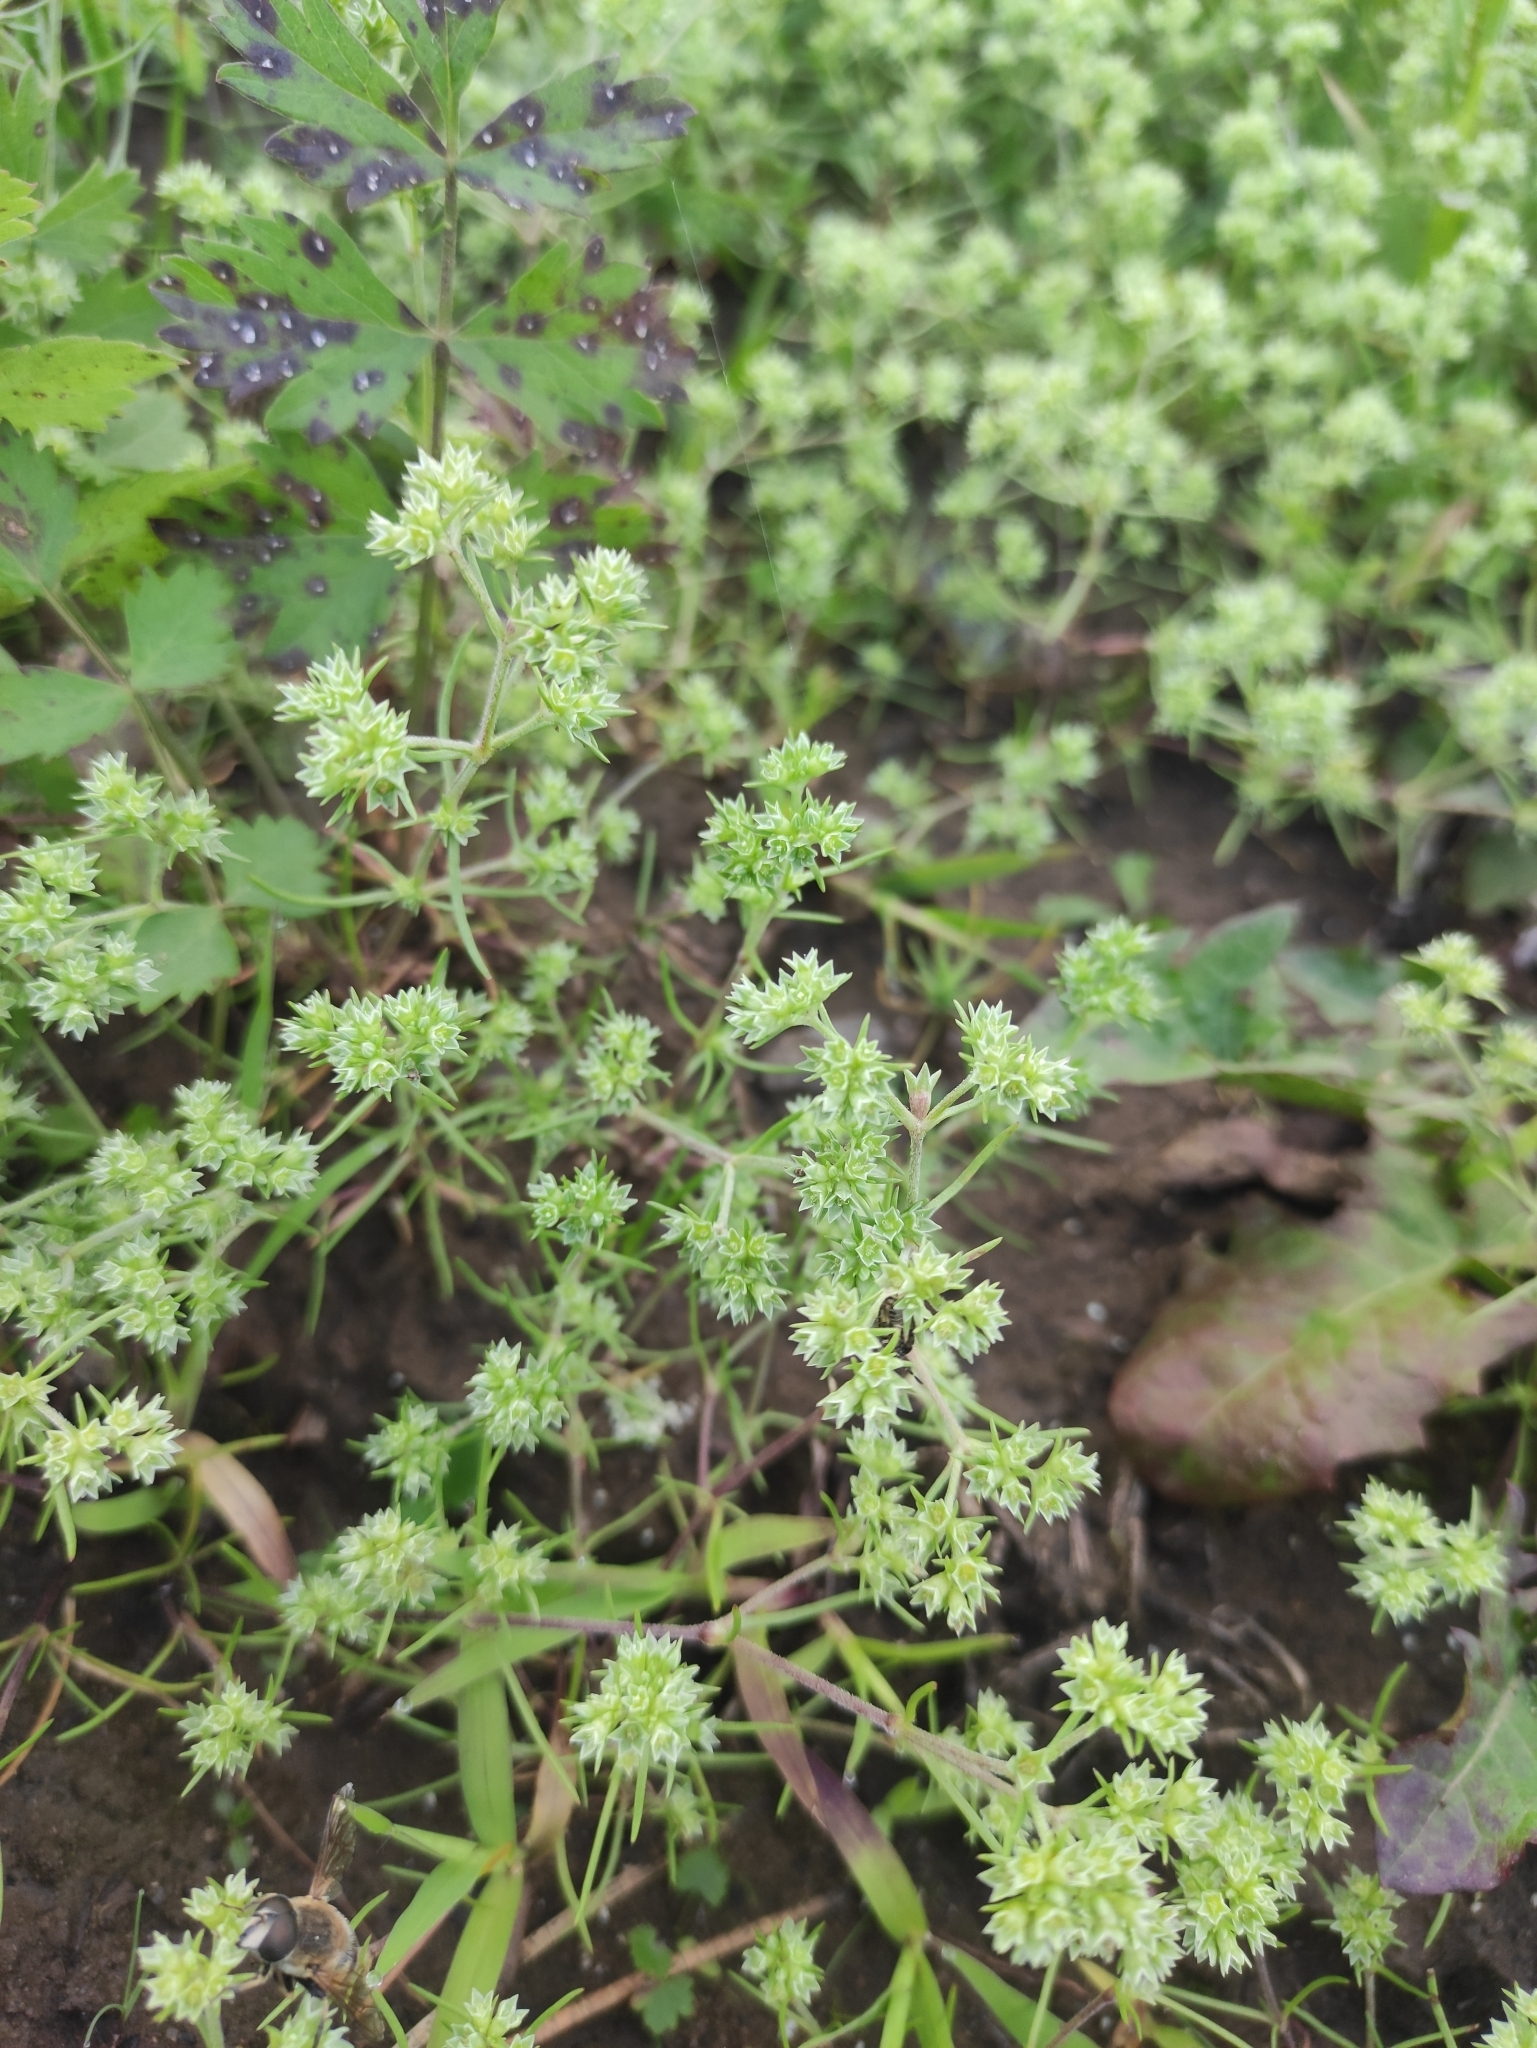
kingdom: Plantae
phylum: Tracheophyta
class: Magnoliopsida
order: Caryophyllales
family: Caryophyllaceae
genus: Scleranthus
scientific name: Scleranthus annuus
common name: Annual knawel
